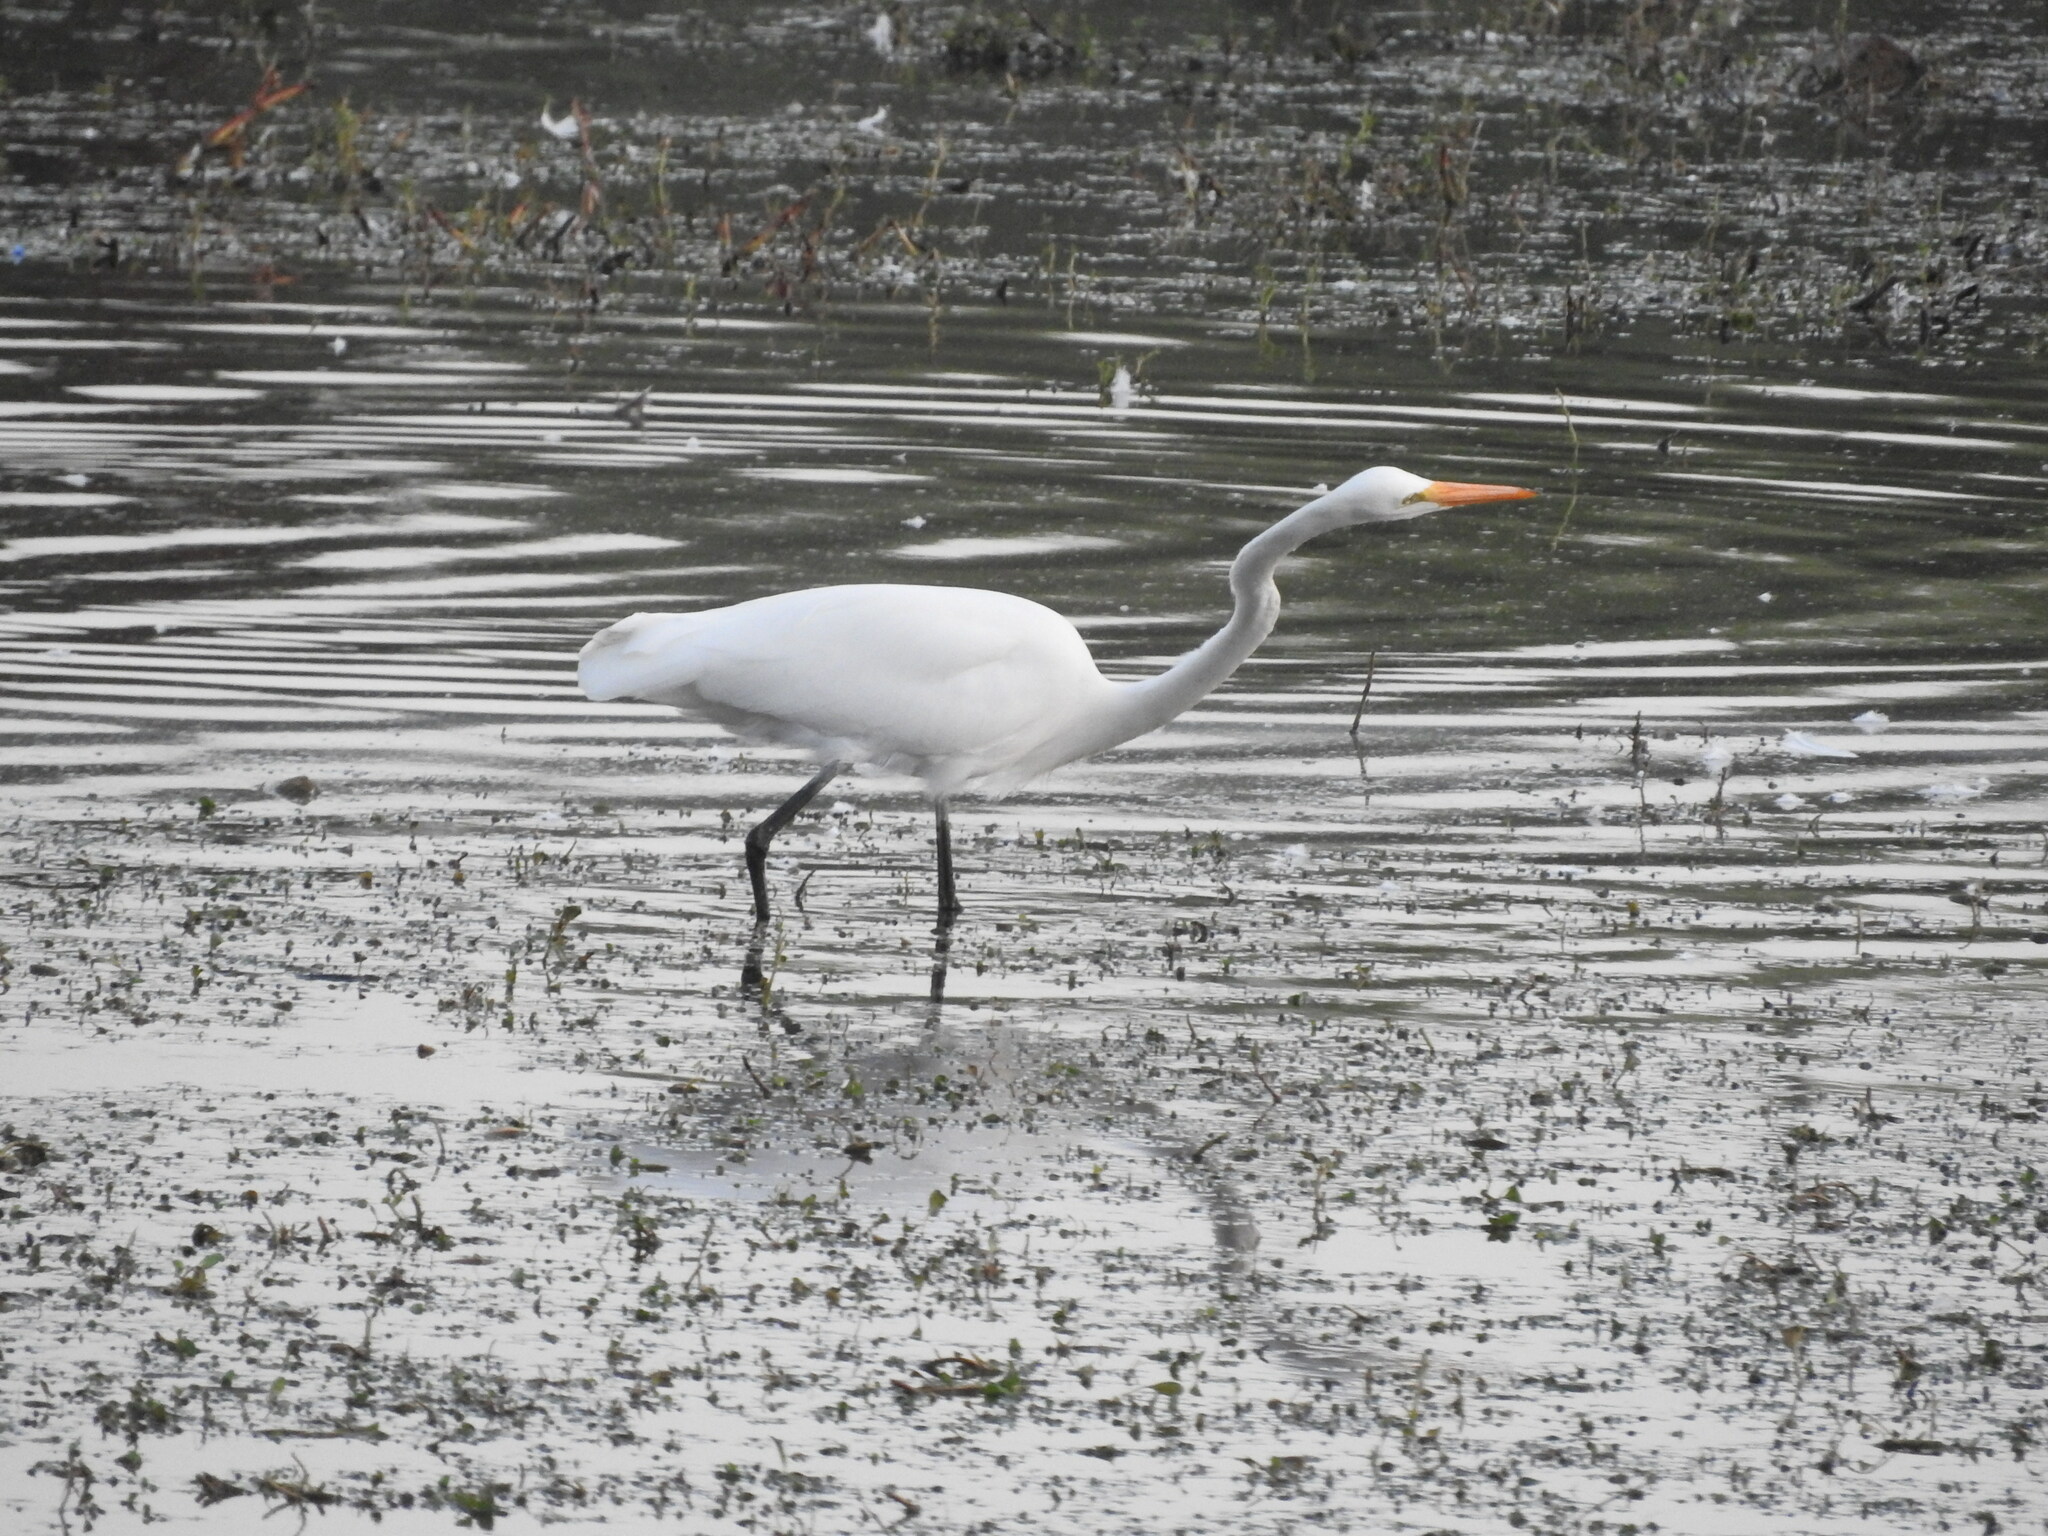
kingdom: Animalia
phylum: Chordata
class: Aves
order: Pelecaniformes
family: Ardeidae
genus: Ardea
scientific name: Ardea alba
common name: Great egret
